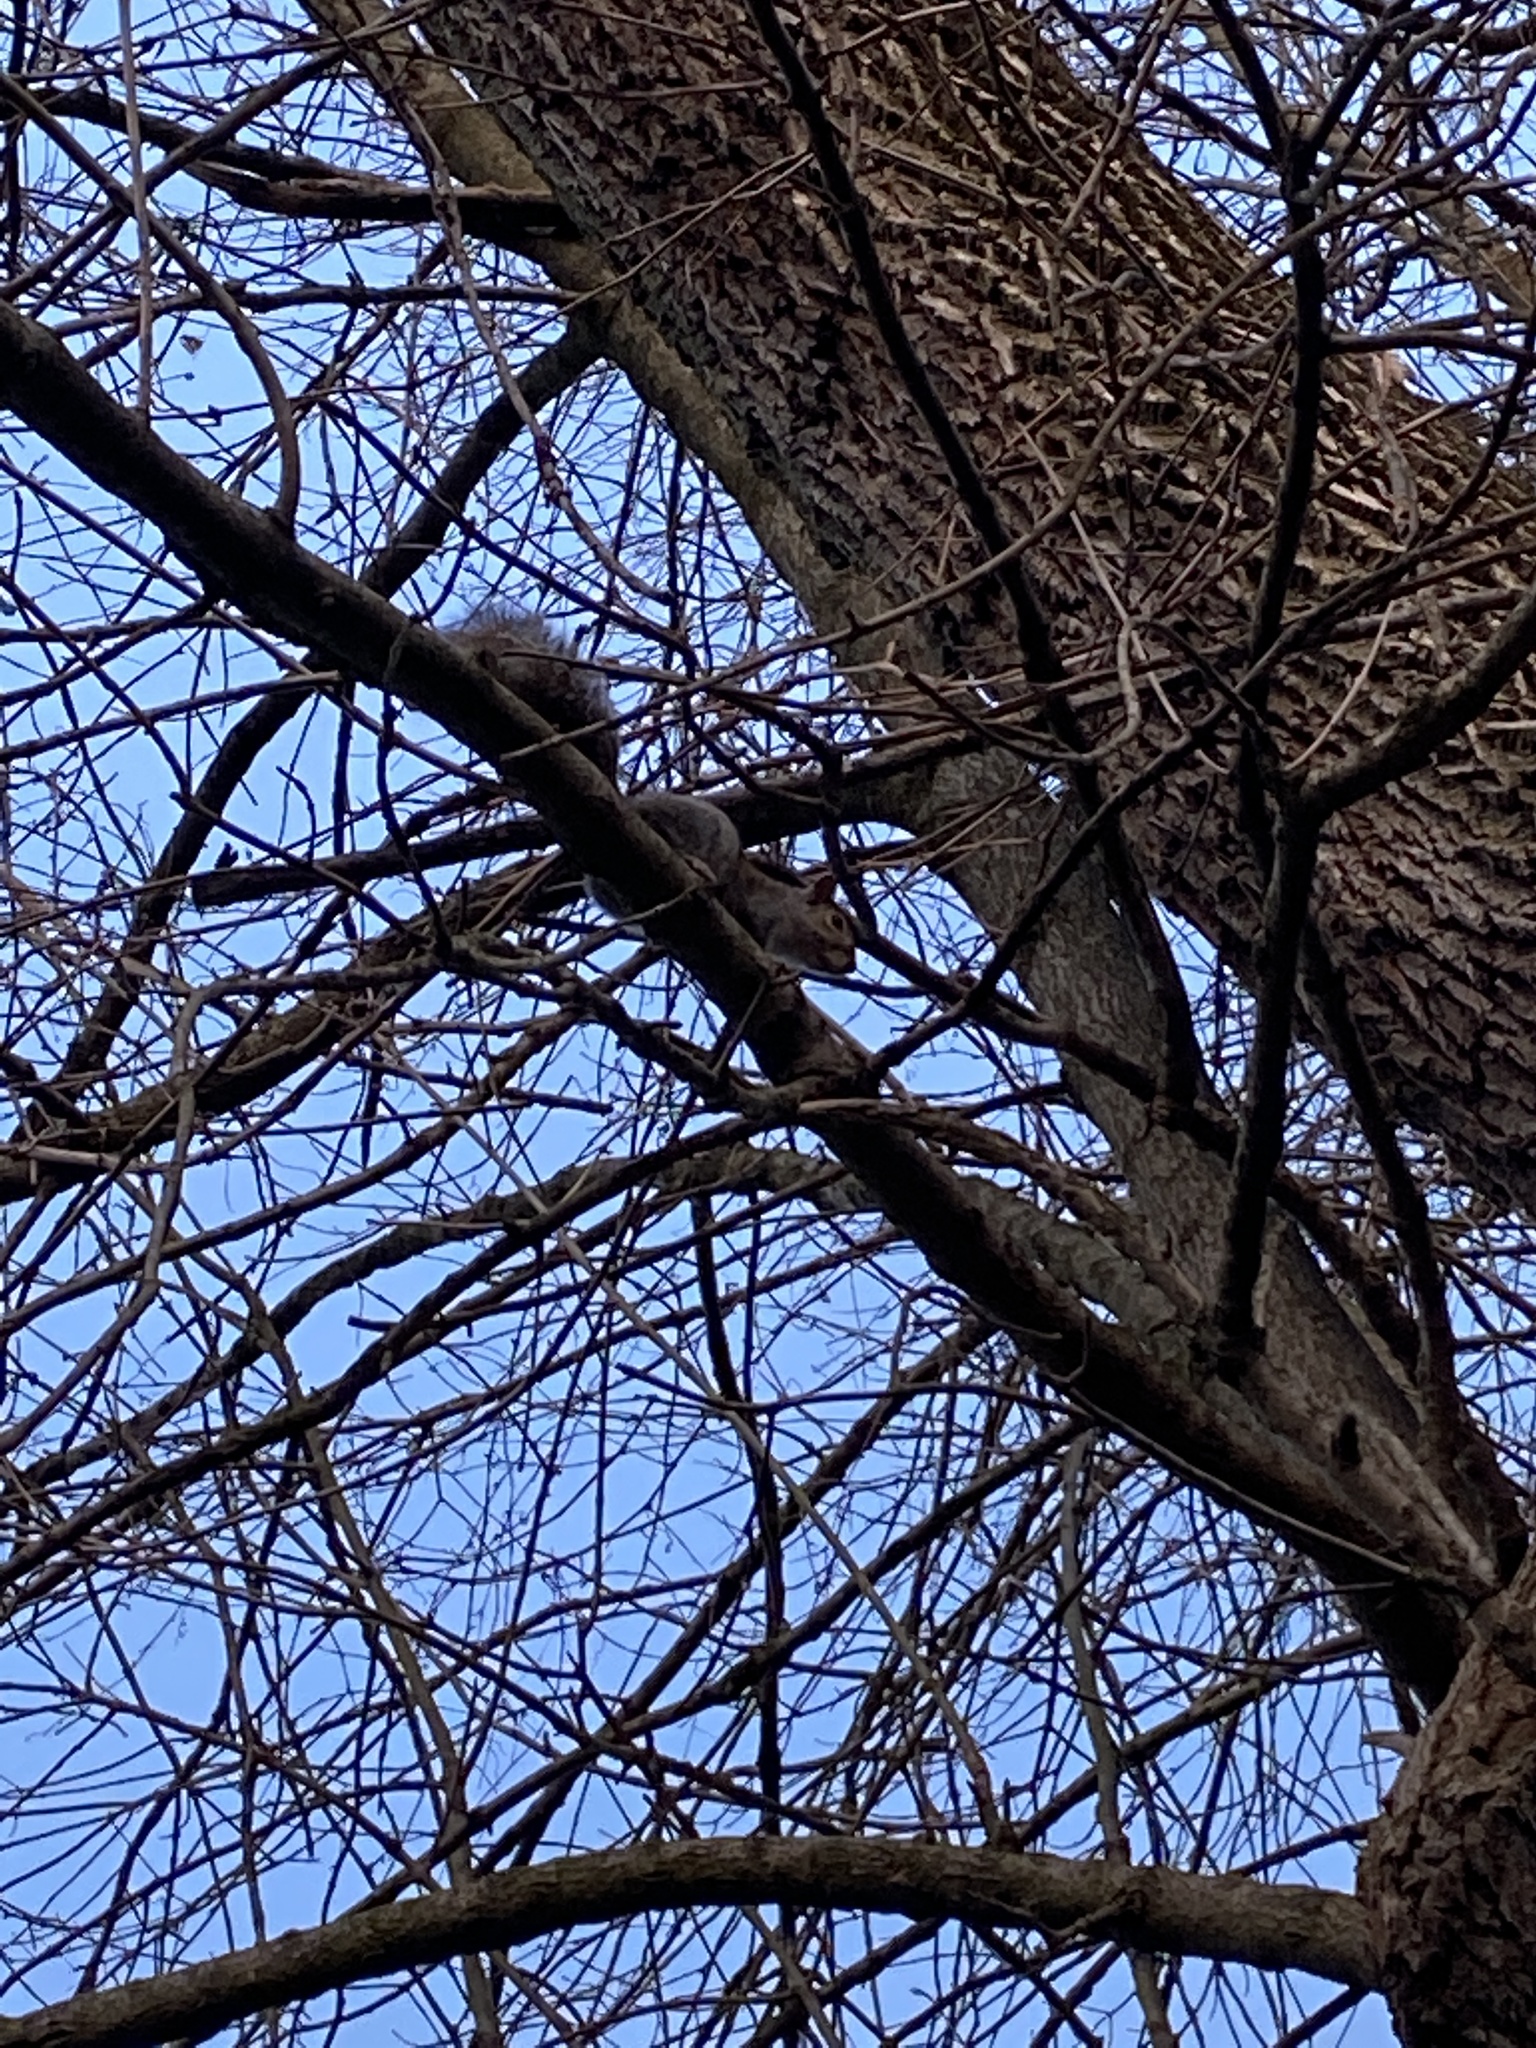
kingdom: Animalia
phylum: Chordata
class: Mammalia
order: Rodentia
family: Sciuridae
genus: Sciurus
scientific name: Sciurus carolinensis
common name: Eastern gray squirrel
